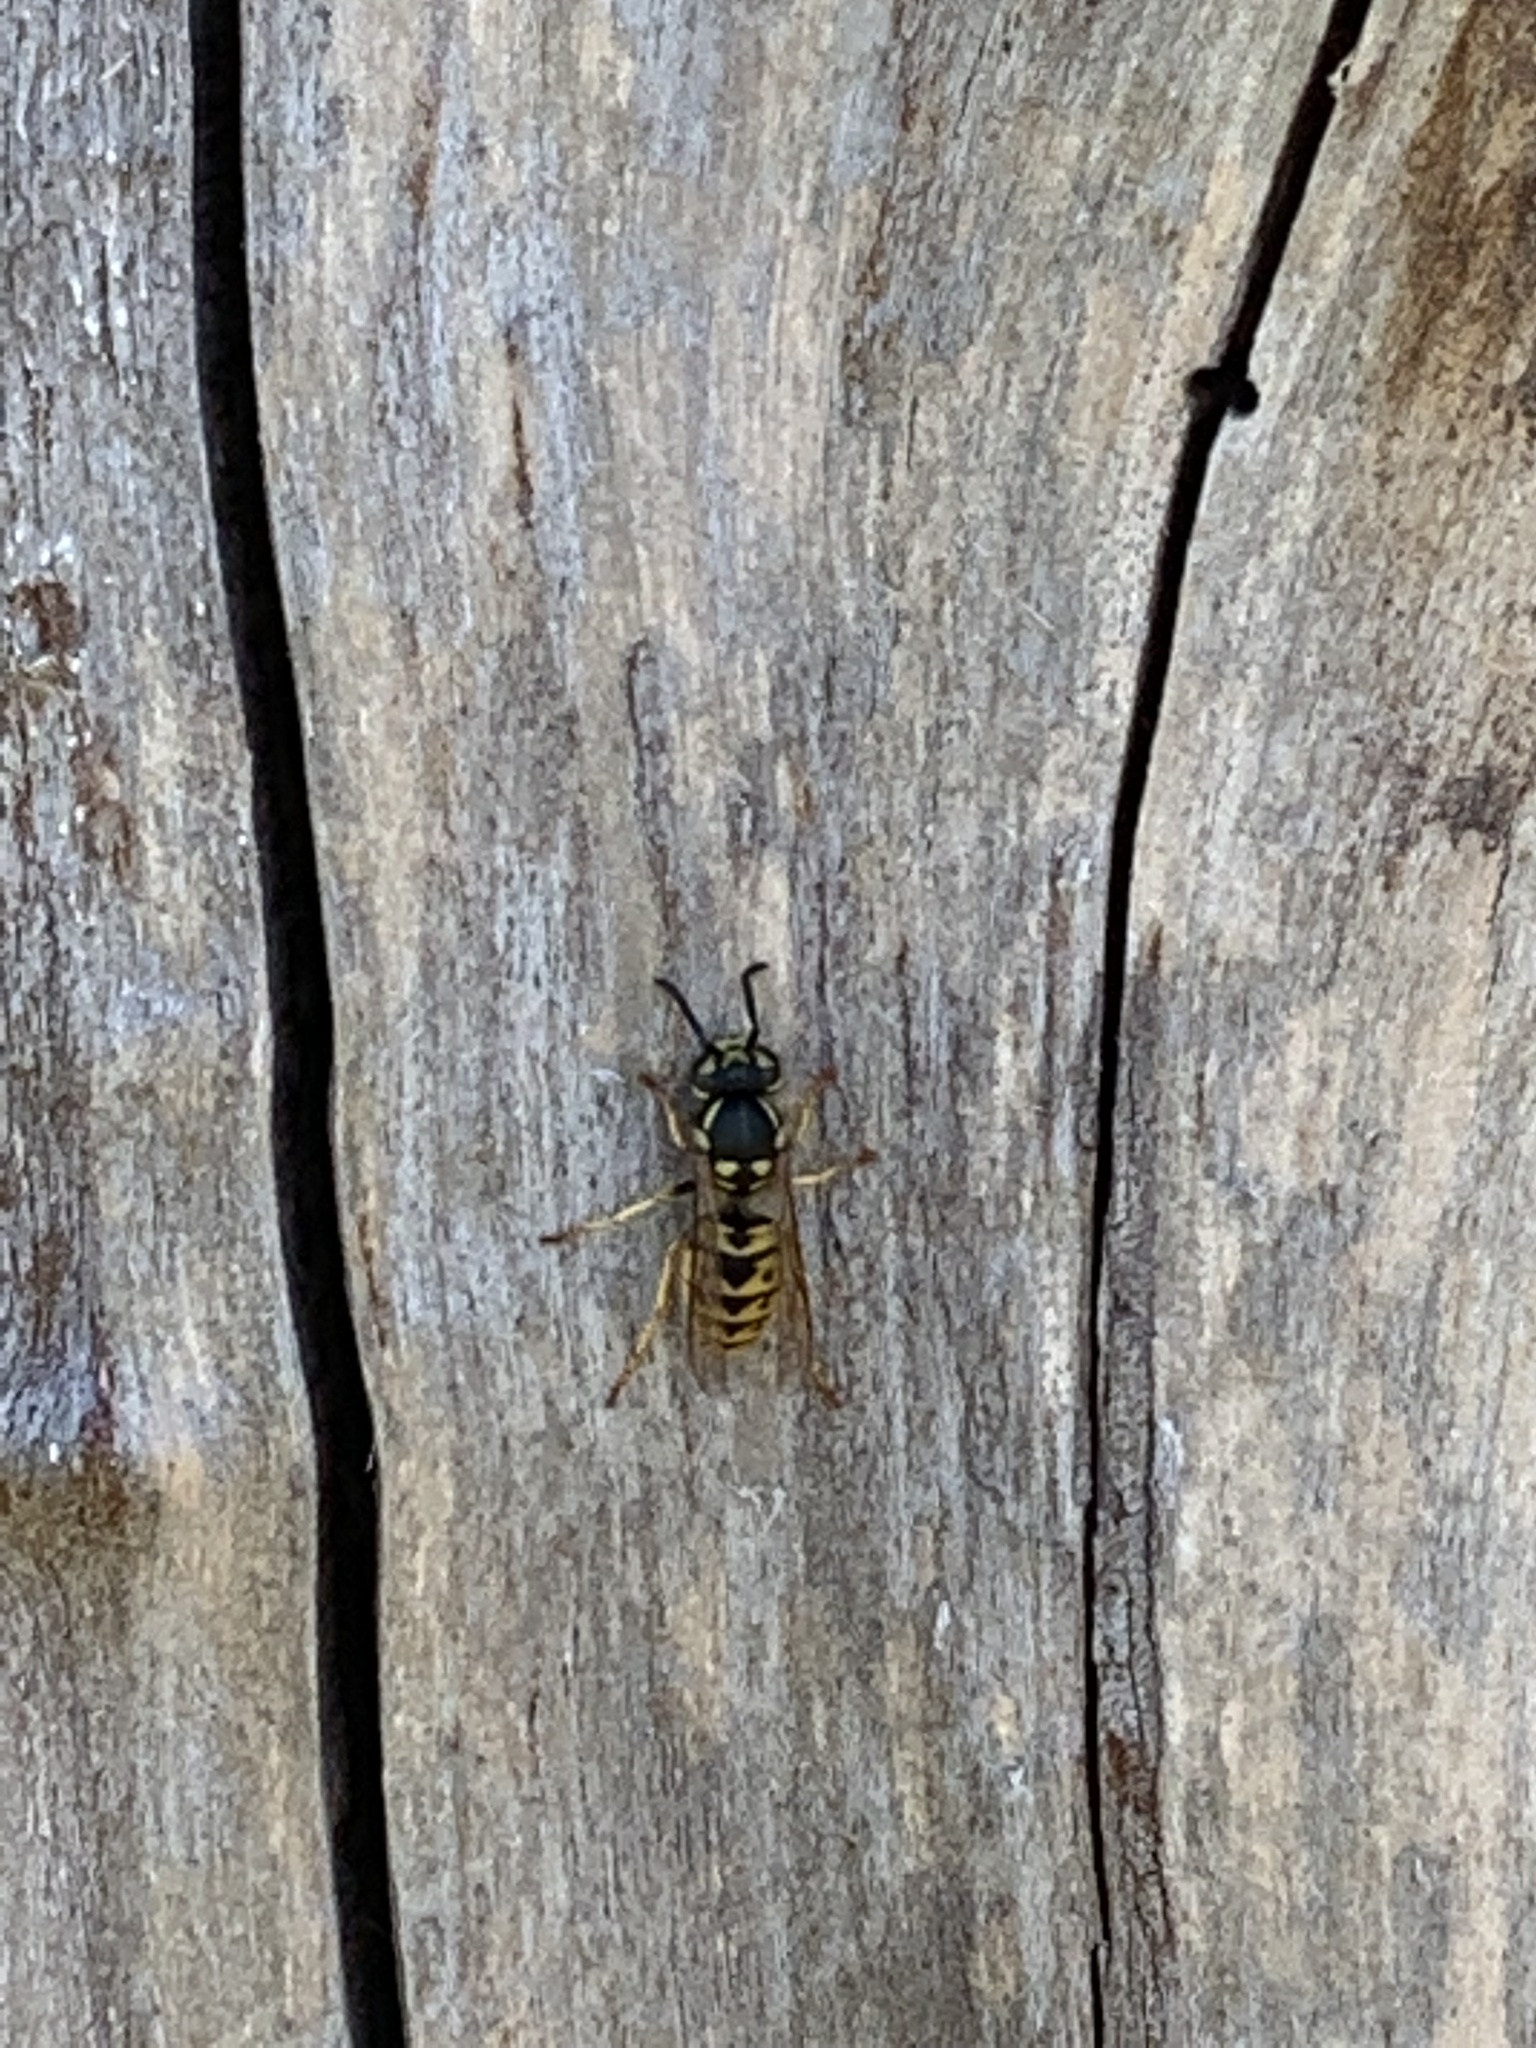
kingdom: Animalia
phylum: Arthropoda
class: Insecta
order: Hymenoptera
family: Vespidae
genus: Vespula
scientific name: Vespula germanica
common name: German wasp
